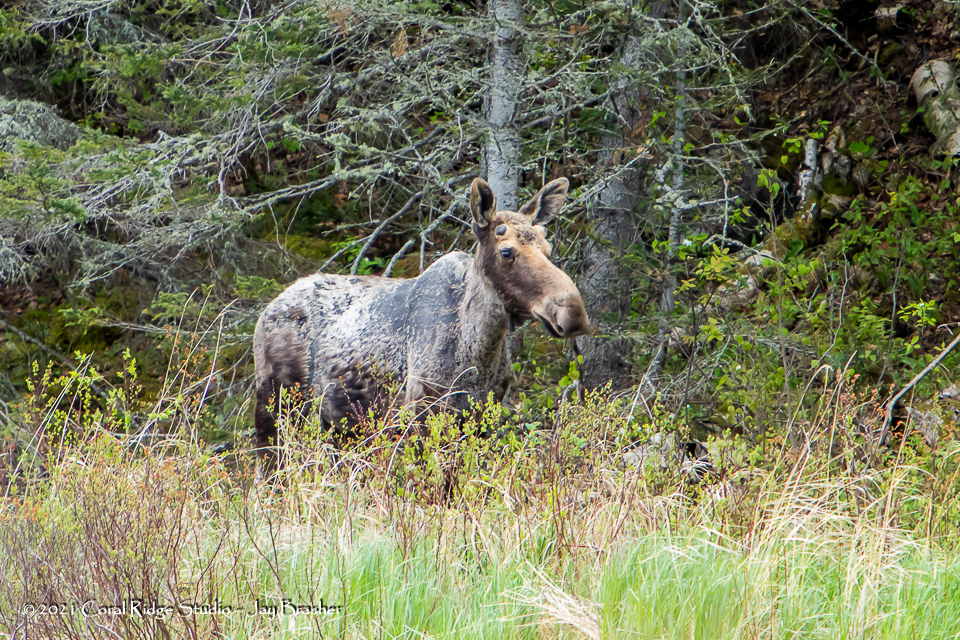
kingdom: Animalia
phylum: Chordata
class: Mammalia
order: Artiodactyla
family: Cervidae
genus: Alces
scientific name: Alces alces
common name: Moose
